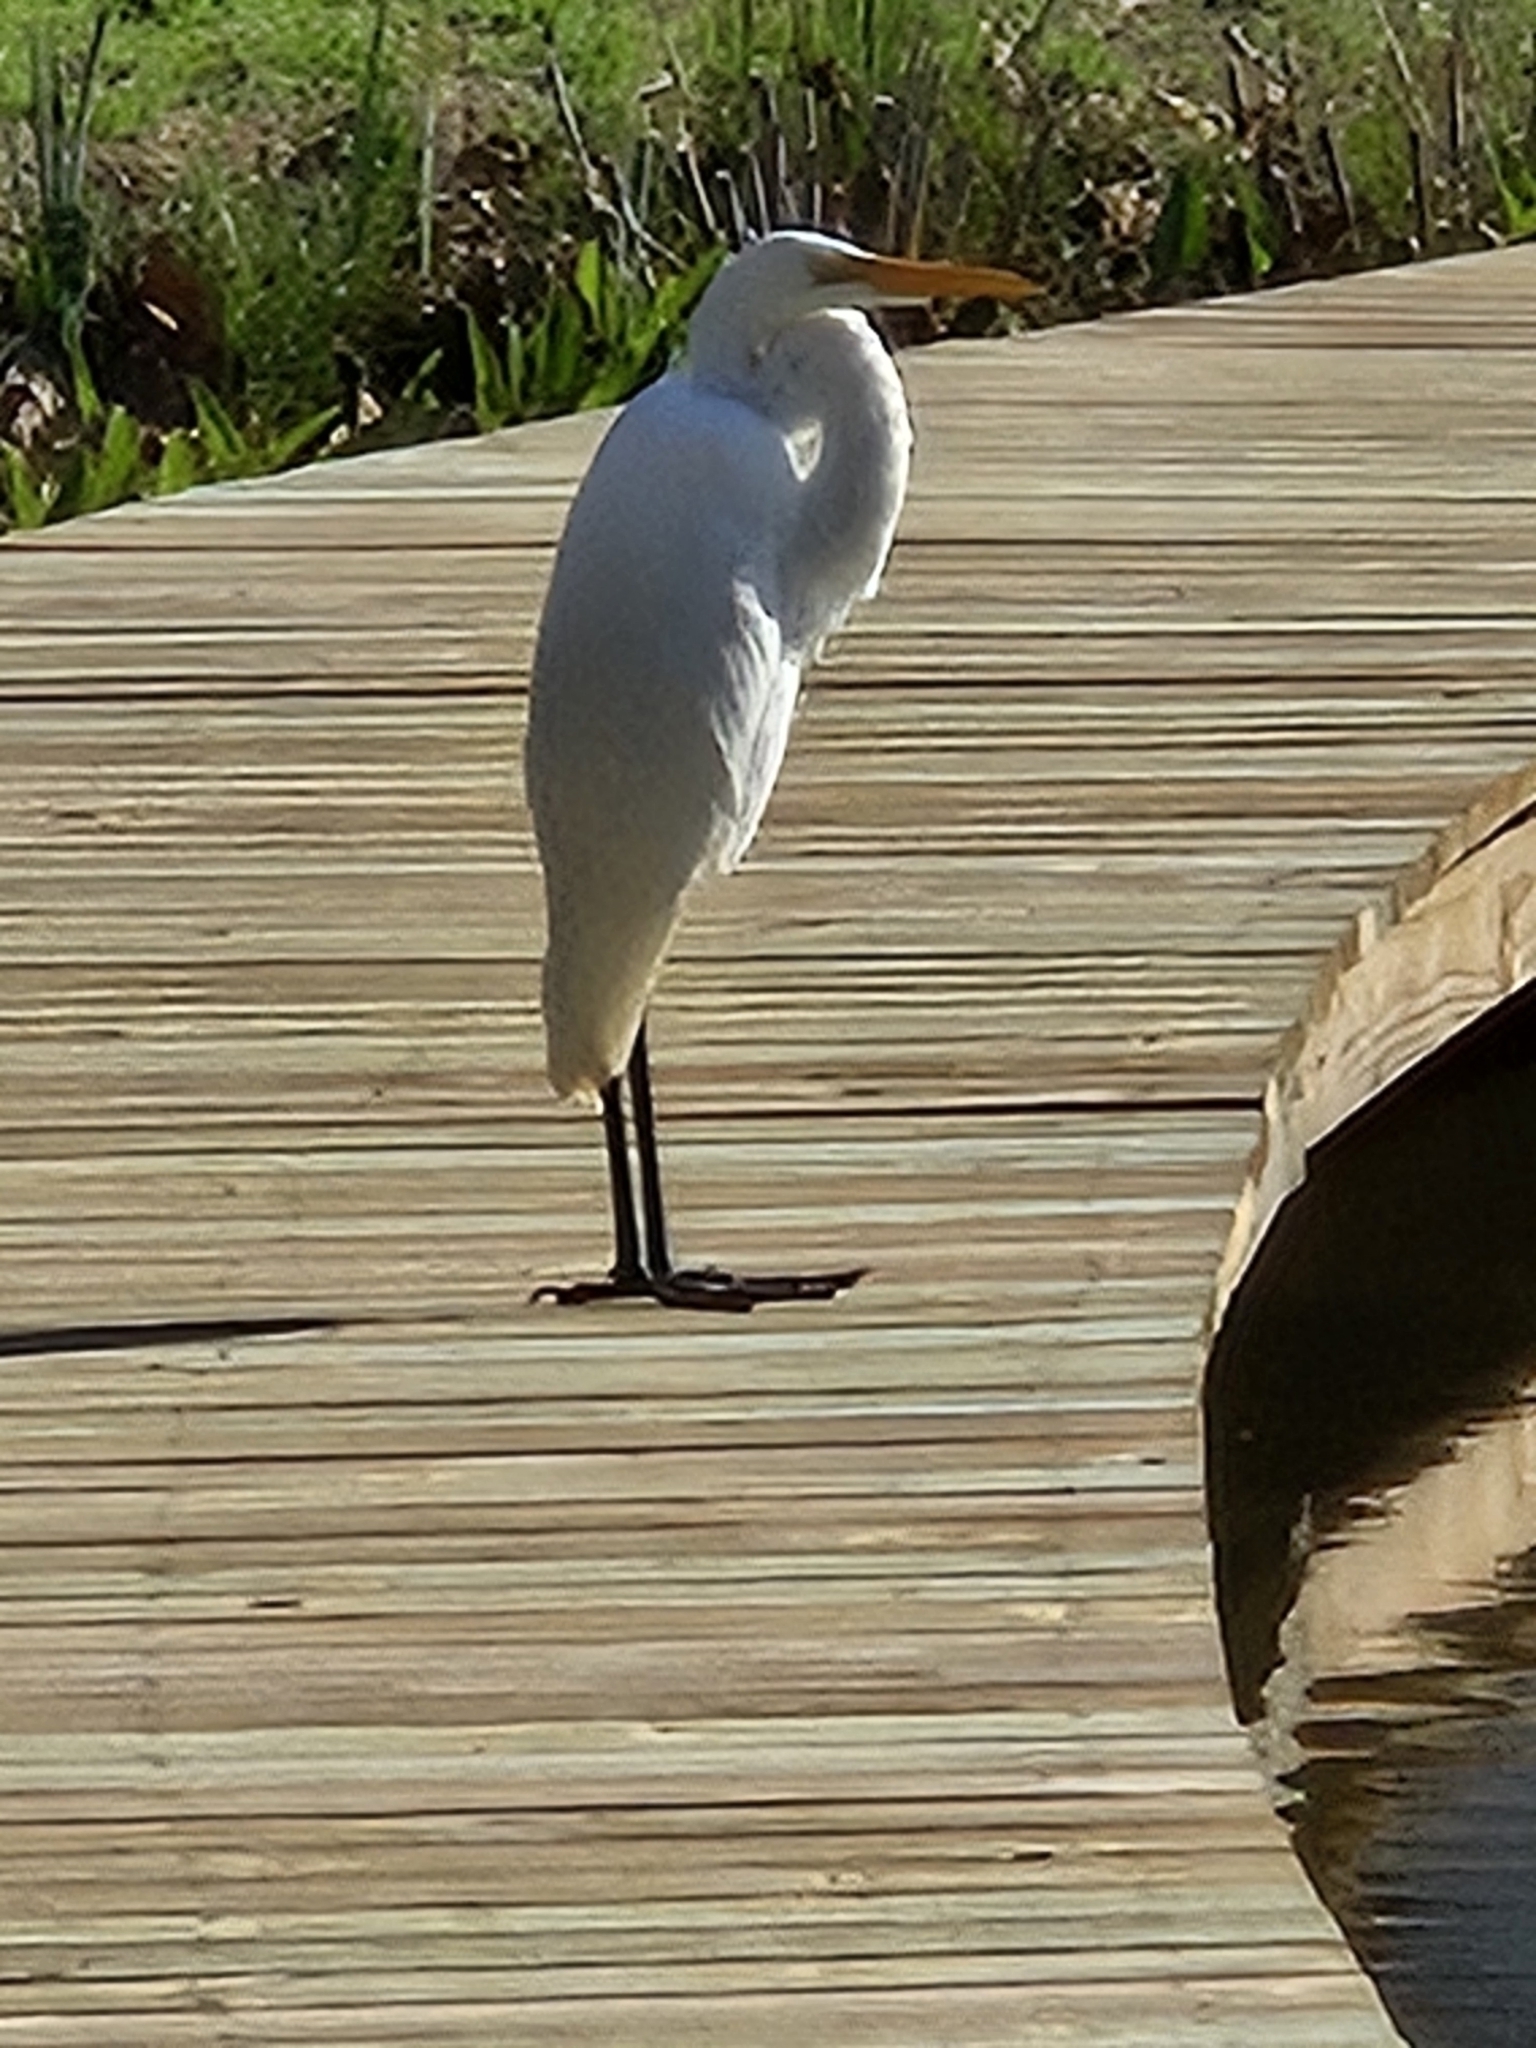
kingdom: Animalia
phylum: Chordata
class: Aves
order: Pelecaniformes
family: Ardeidae
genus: Ardea
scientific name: Ardea alba
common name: Great egret
